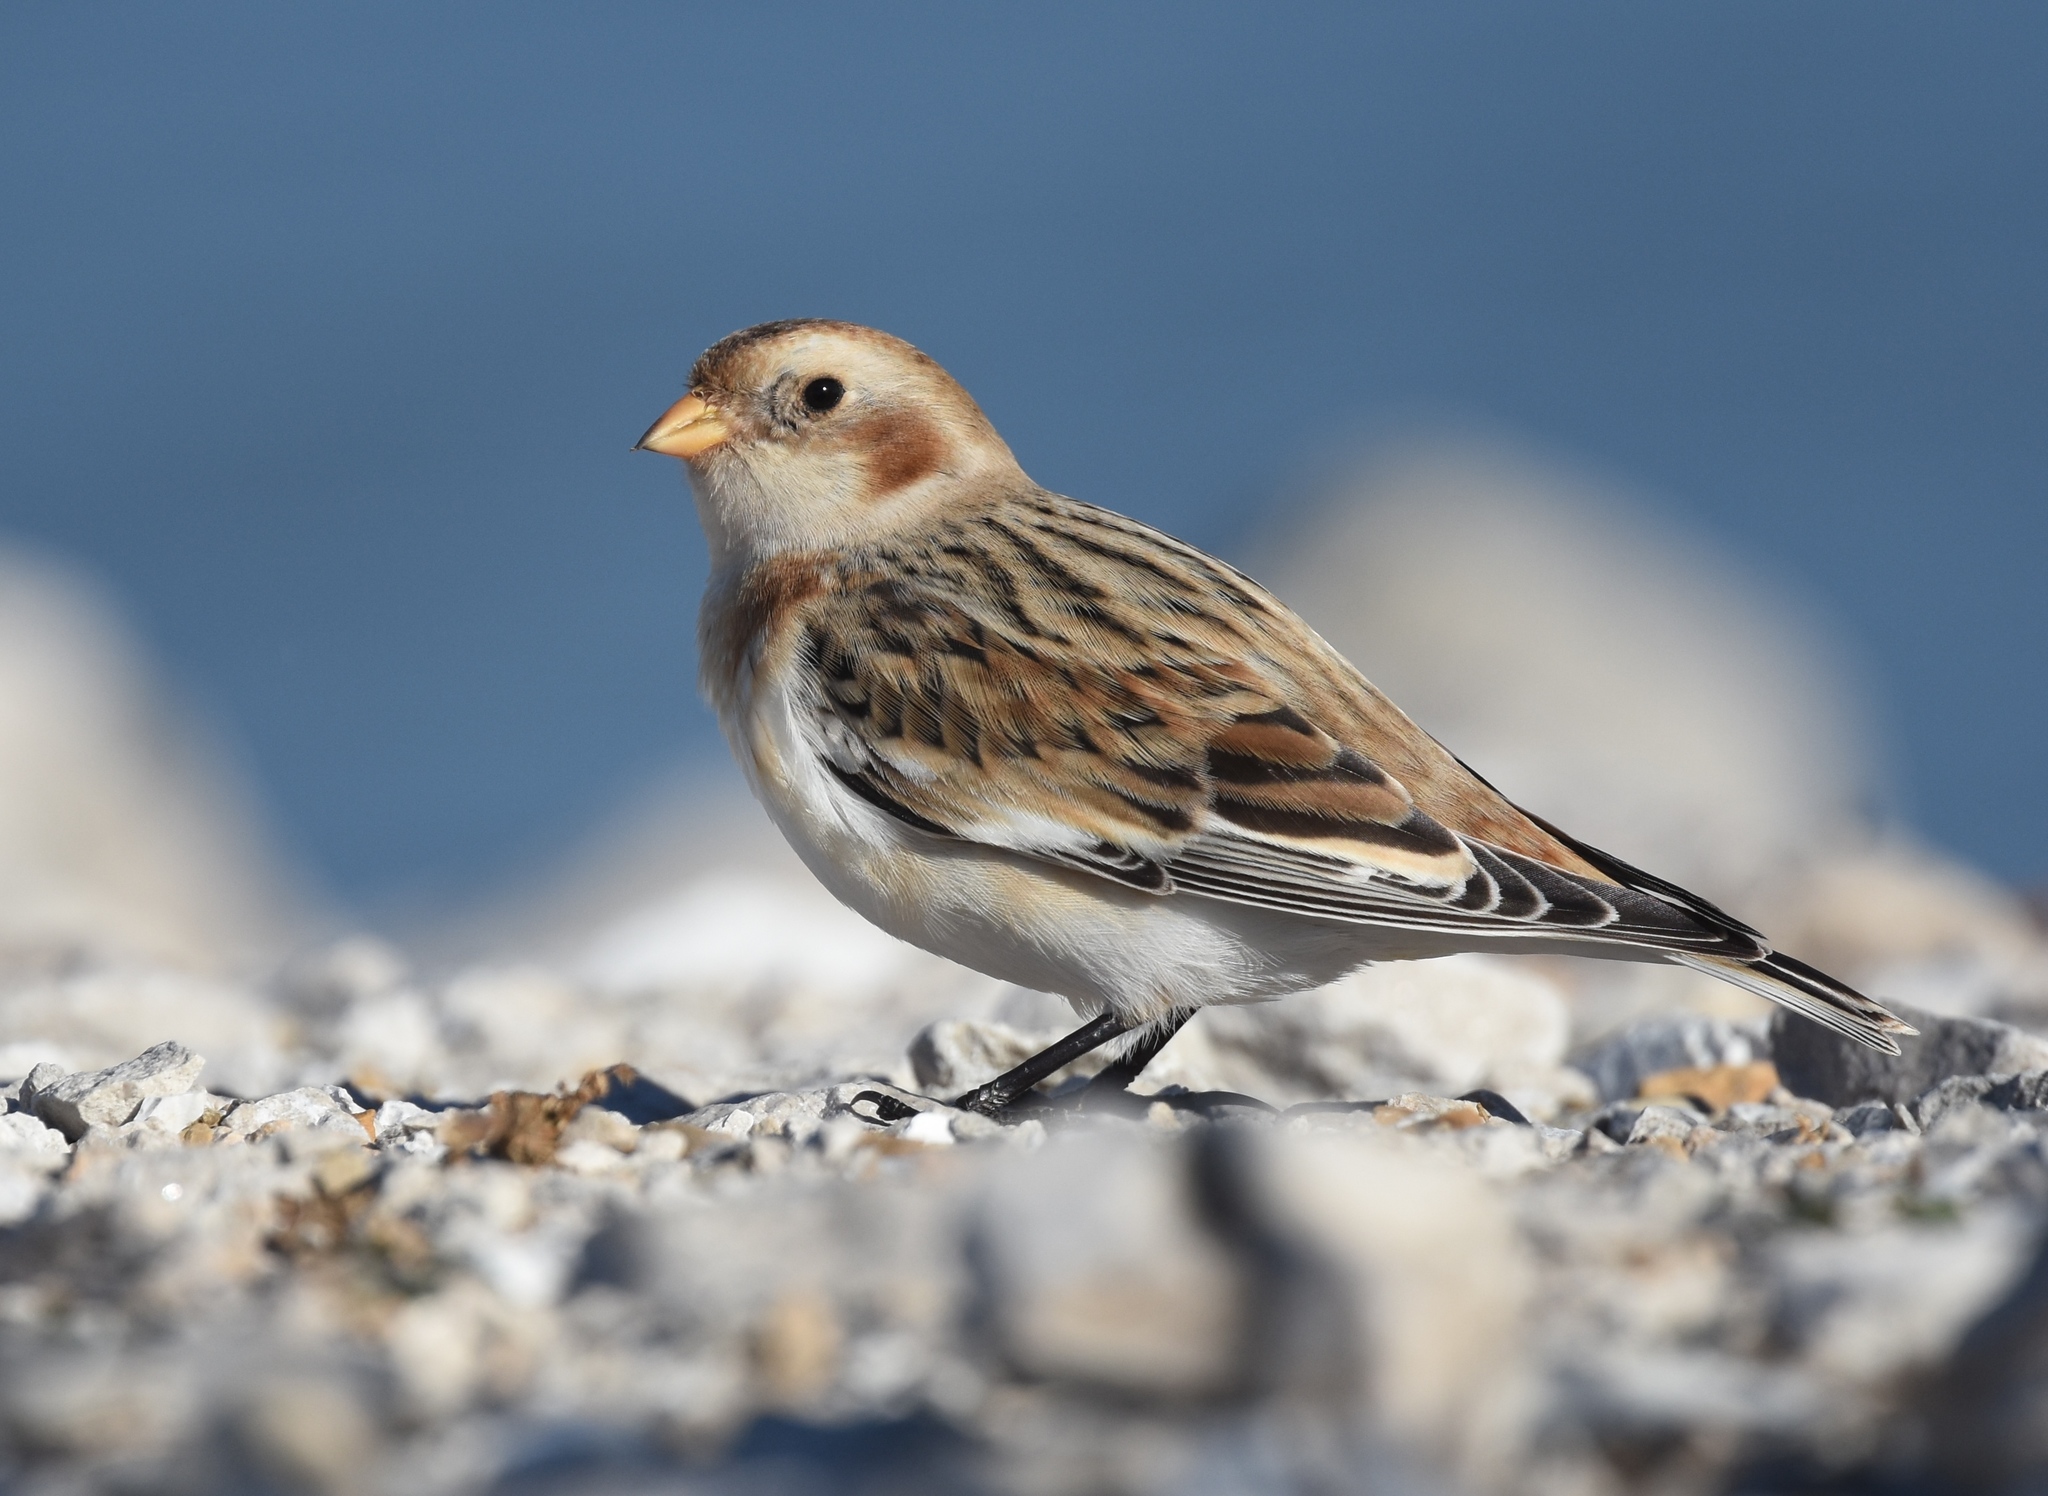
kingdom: Animalia
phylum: Chordata
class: Aves
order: Passeriformes
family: Calcariidae
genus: Plectrophenax
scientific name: Plectrophenax nivalis
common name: Snow bunting
